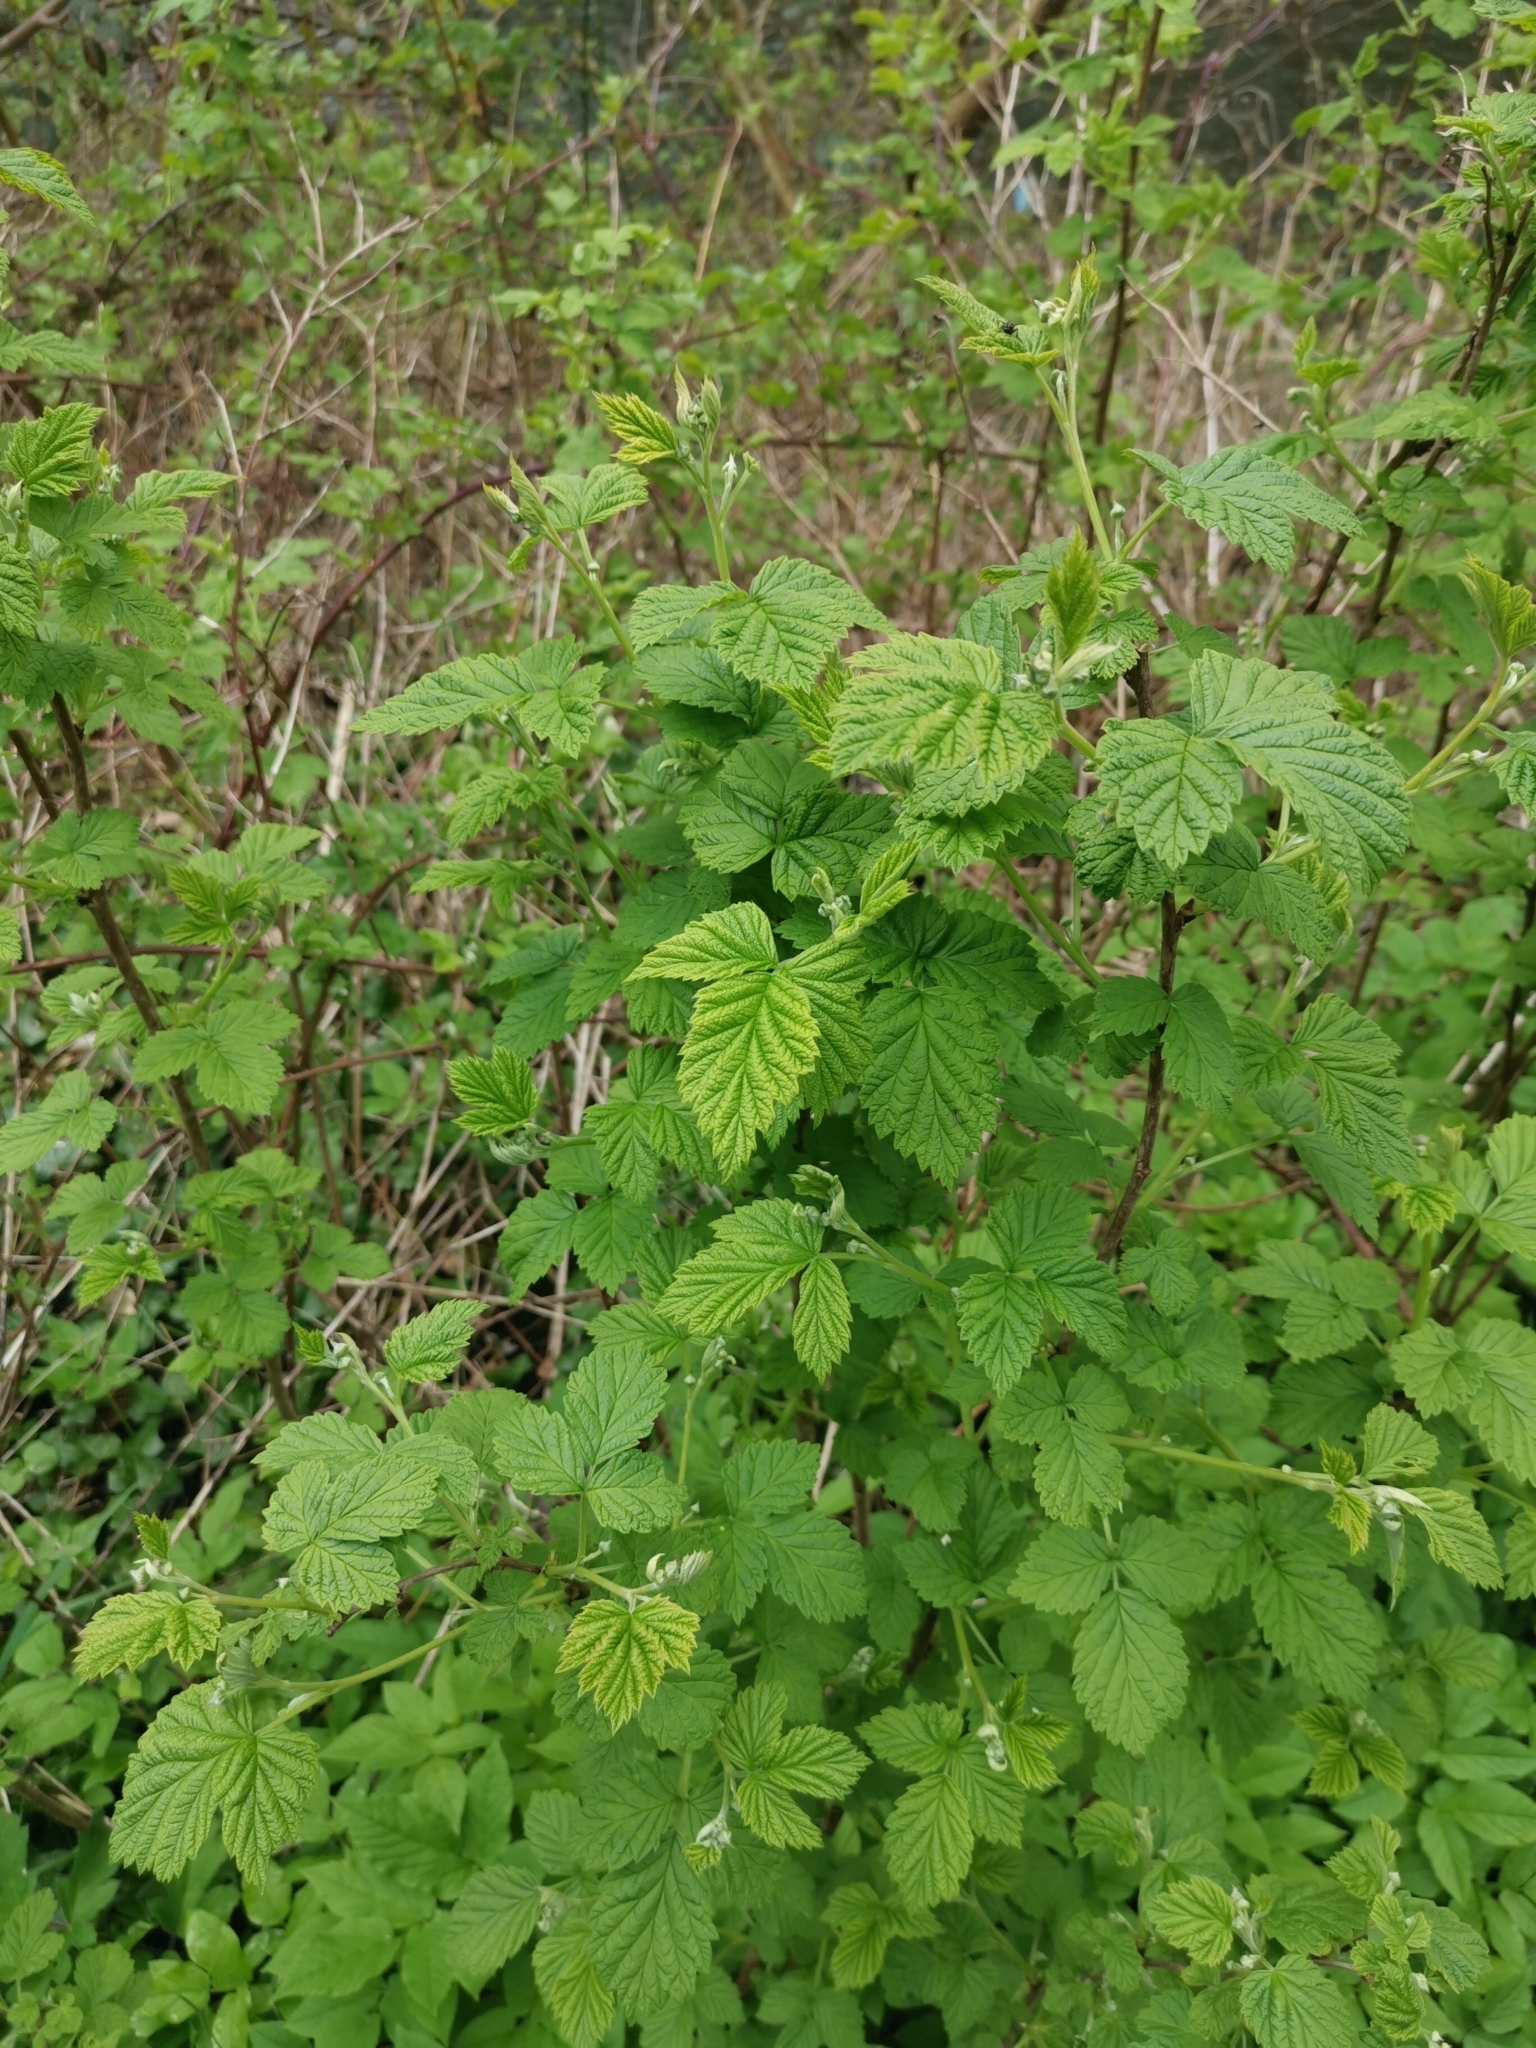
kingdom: Plantae
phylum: Tracheophyta
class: Magnoliopsida
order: Rosales
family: Rosaceae
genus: Rubus
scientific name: Rubus idaeus
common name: Raspberry
